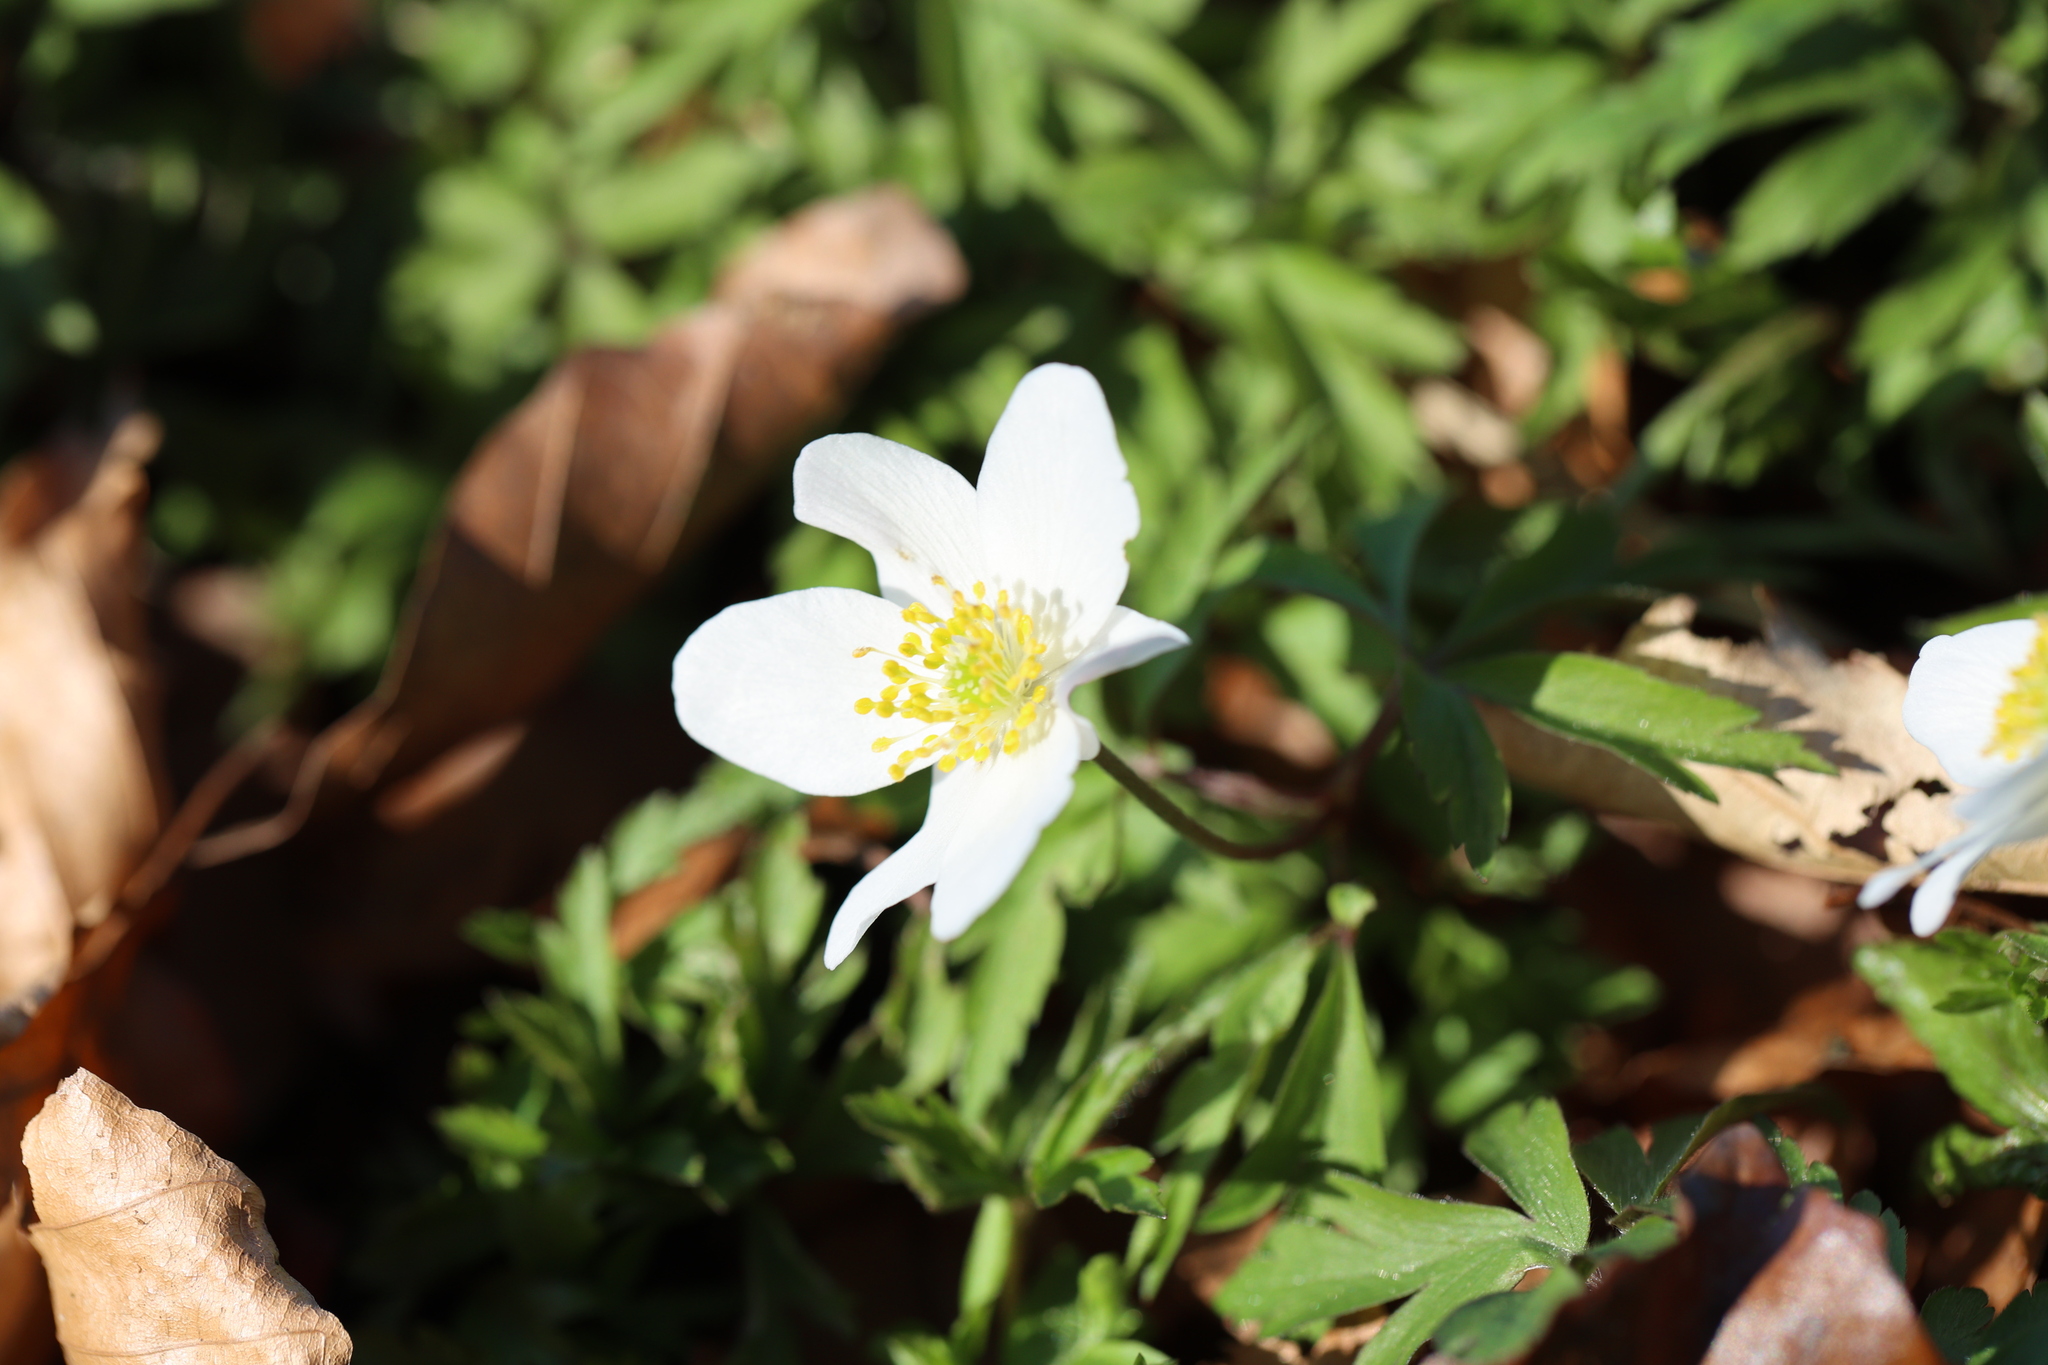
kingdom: Plantae
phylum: Tracheophyta
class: Magnoliopsida
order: Ranunculales
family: Ranunculaceae
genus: Anemone
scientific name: Anemone nemorosa
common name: Wood anemone
